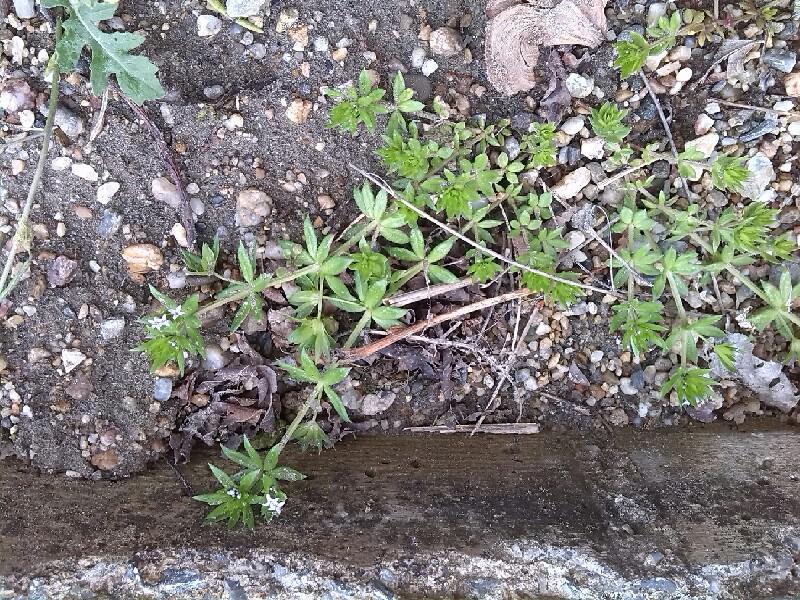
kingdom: Plantae
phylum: Tracheophyta
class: Magnoliopsida
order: Gentianales
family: Rubiaceae
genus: Sherardia
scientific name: Sherardia arvensis
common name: Field madder
